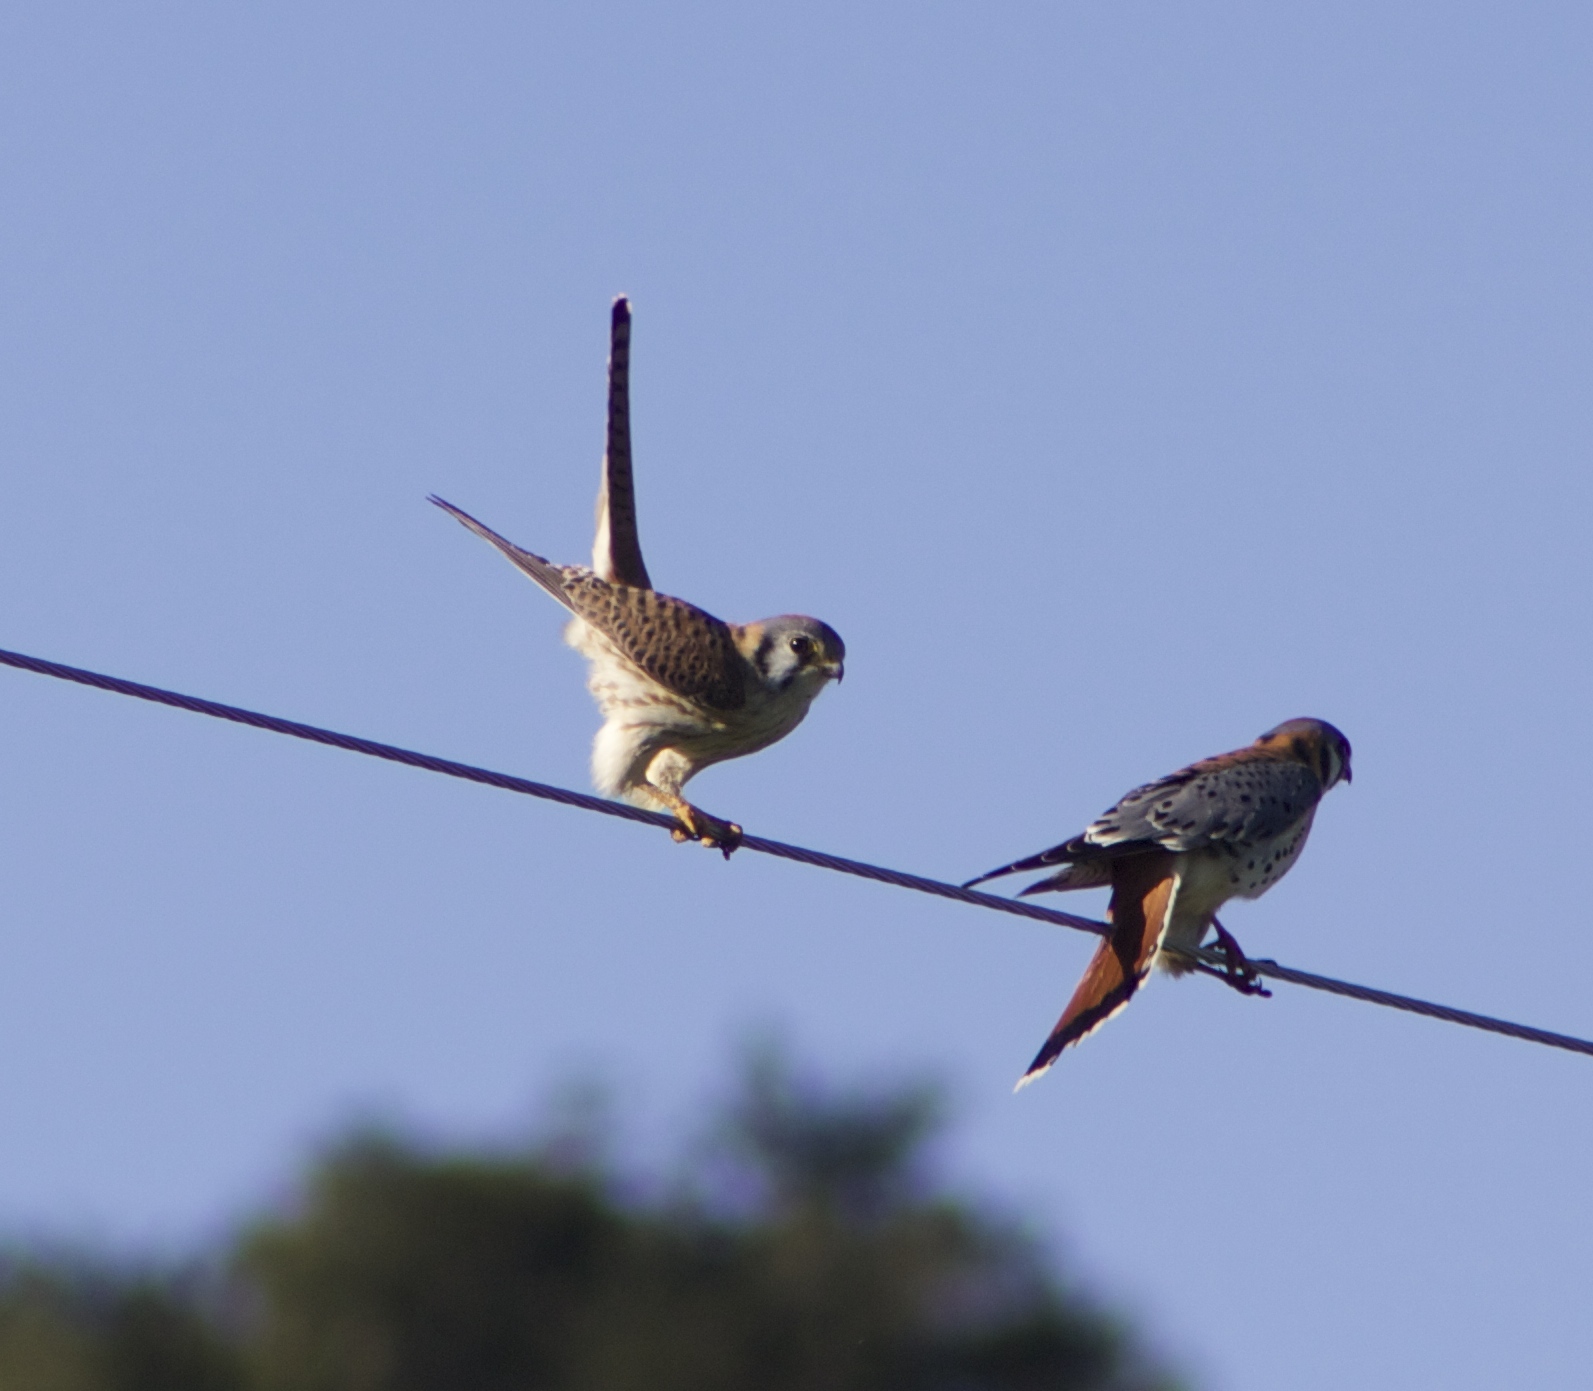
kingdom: Animalia
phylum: Chordata
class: Aves
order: Falconiformes
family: Falconidae
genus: Falco
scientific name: Falco sparverius
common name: American kestrel
